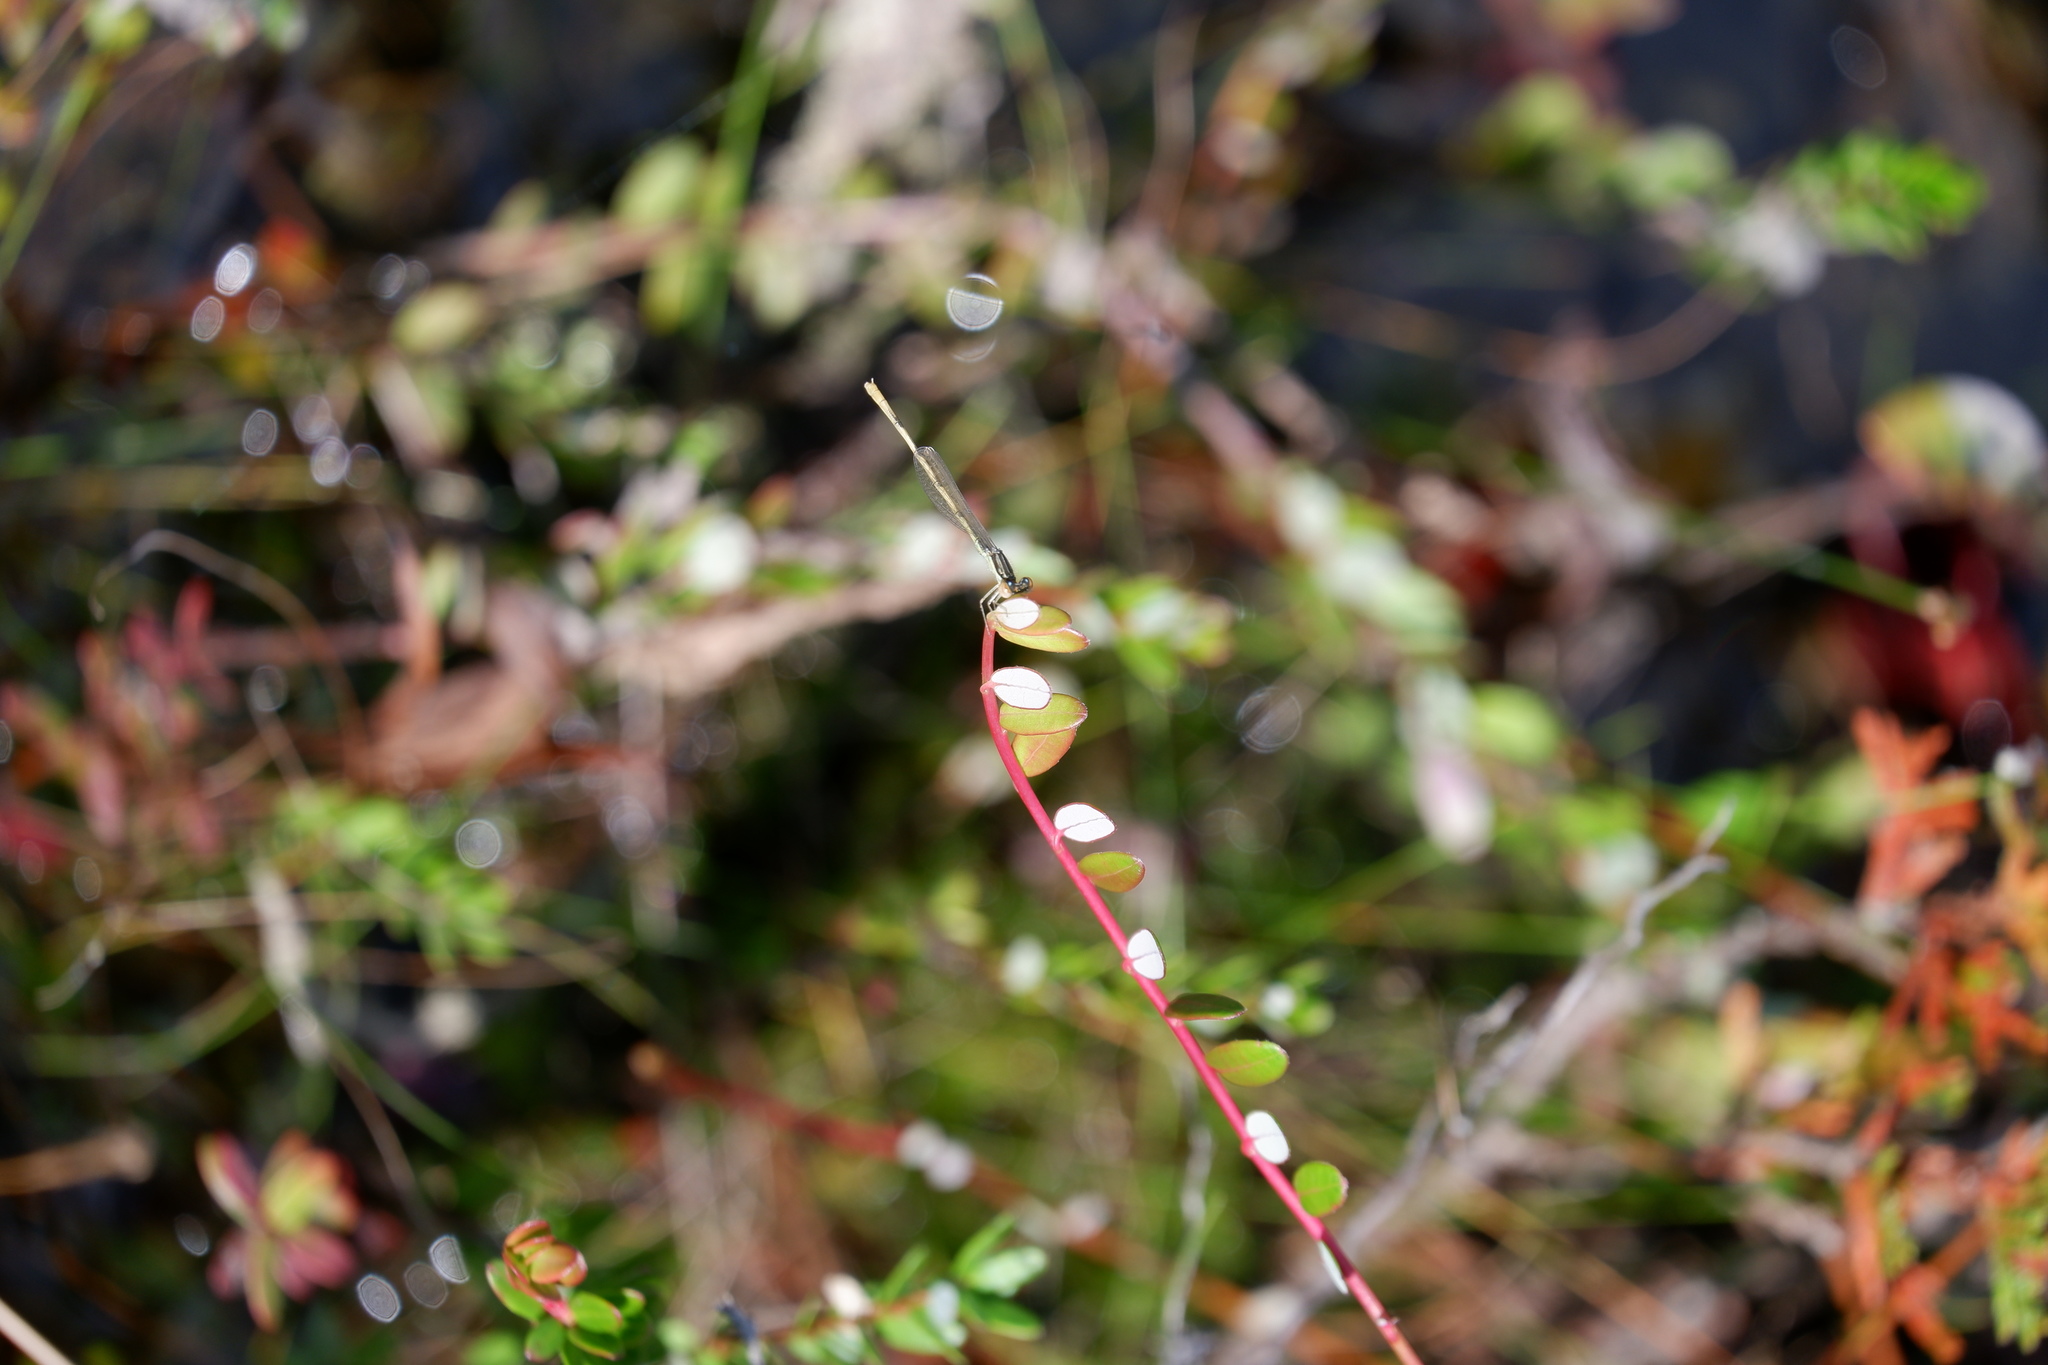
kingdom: Animalia
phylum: Arthropoda
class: Insecta
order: Odonata
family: Coenagrionidae
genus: Ischnura
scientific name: Ischnura hastata
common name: Citrine forktail
